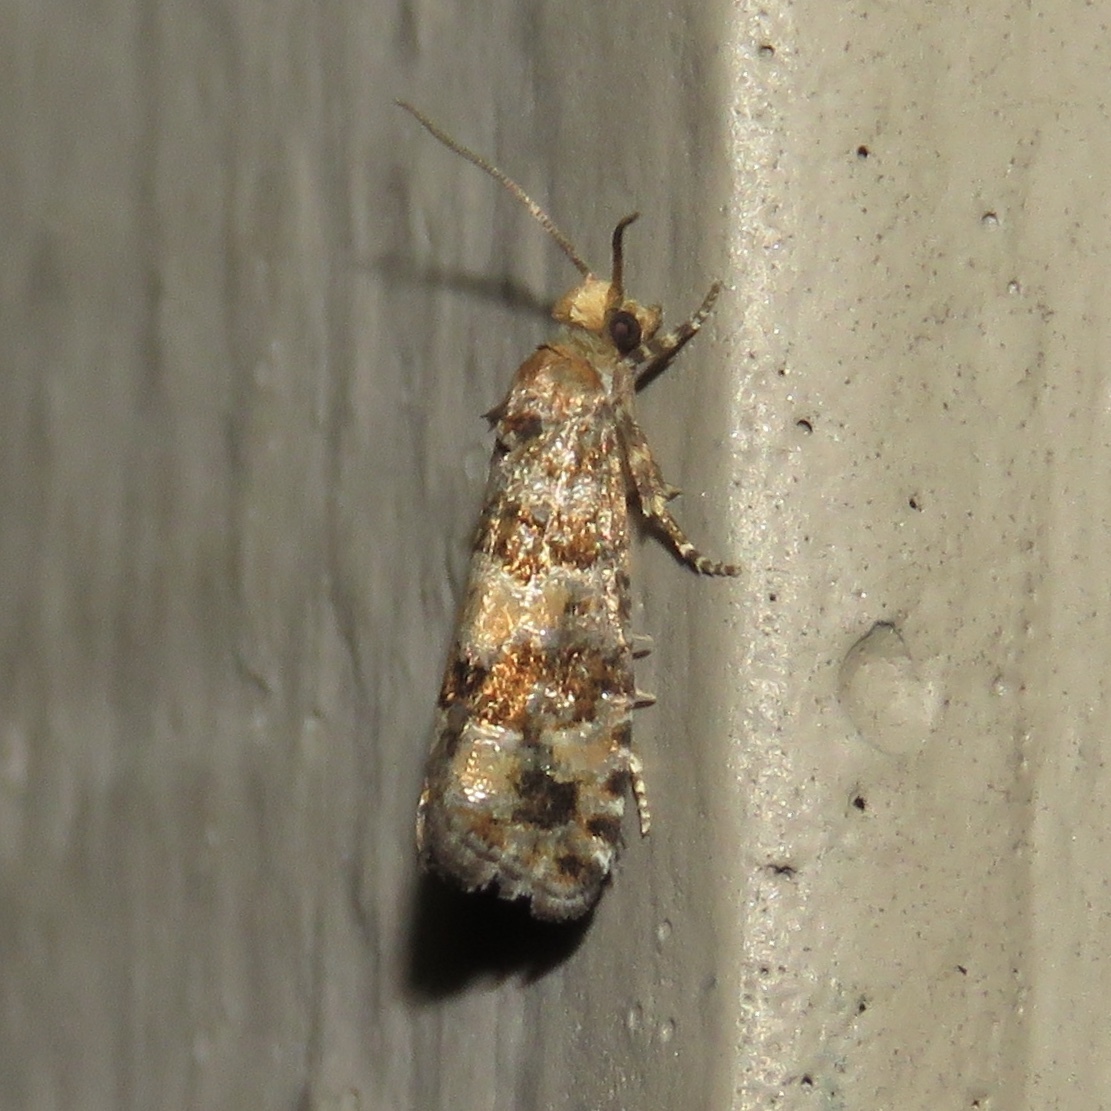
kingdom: Animalia
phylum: Arthropoda
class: Insecta
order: Lepidoptera
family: Tortricidae
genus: Eucopina
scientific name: Eucopina tocullionana
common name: White pinecone borer moth
